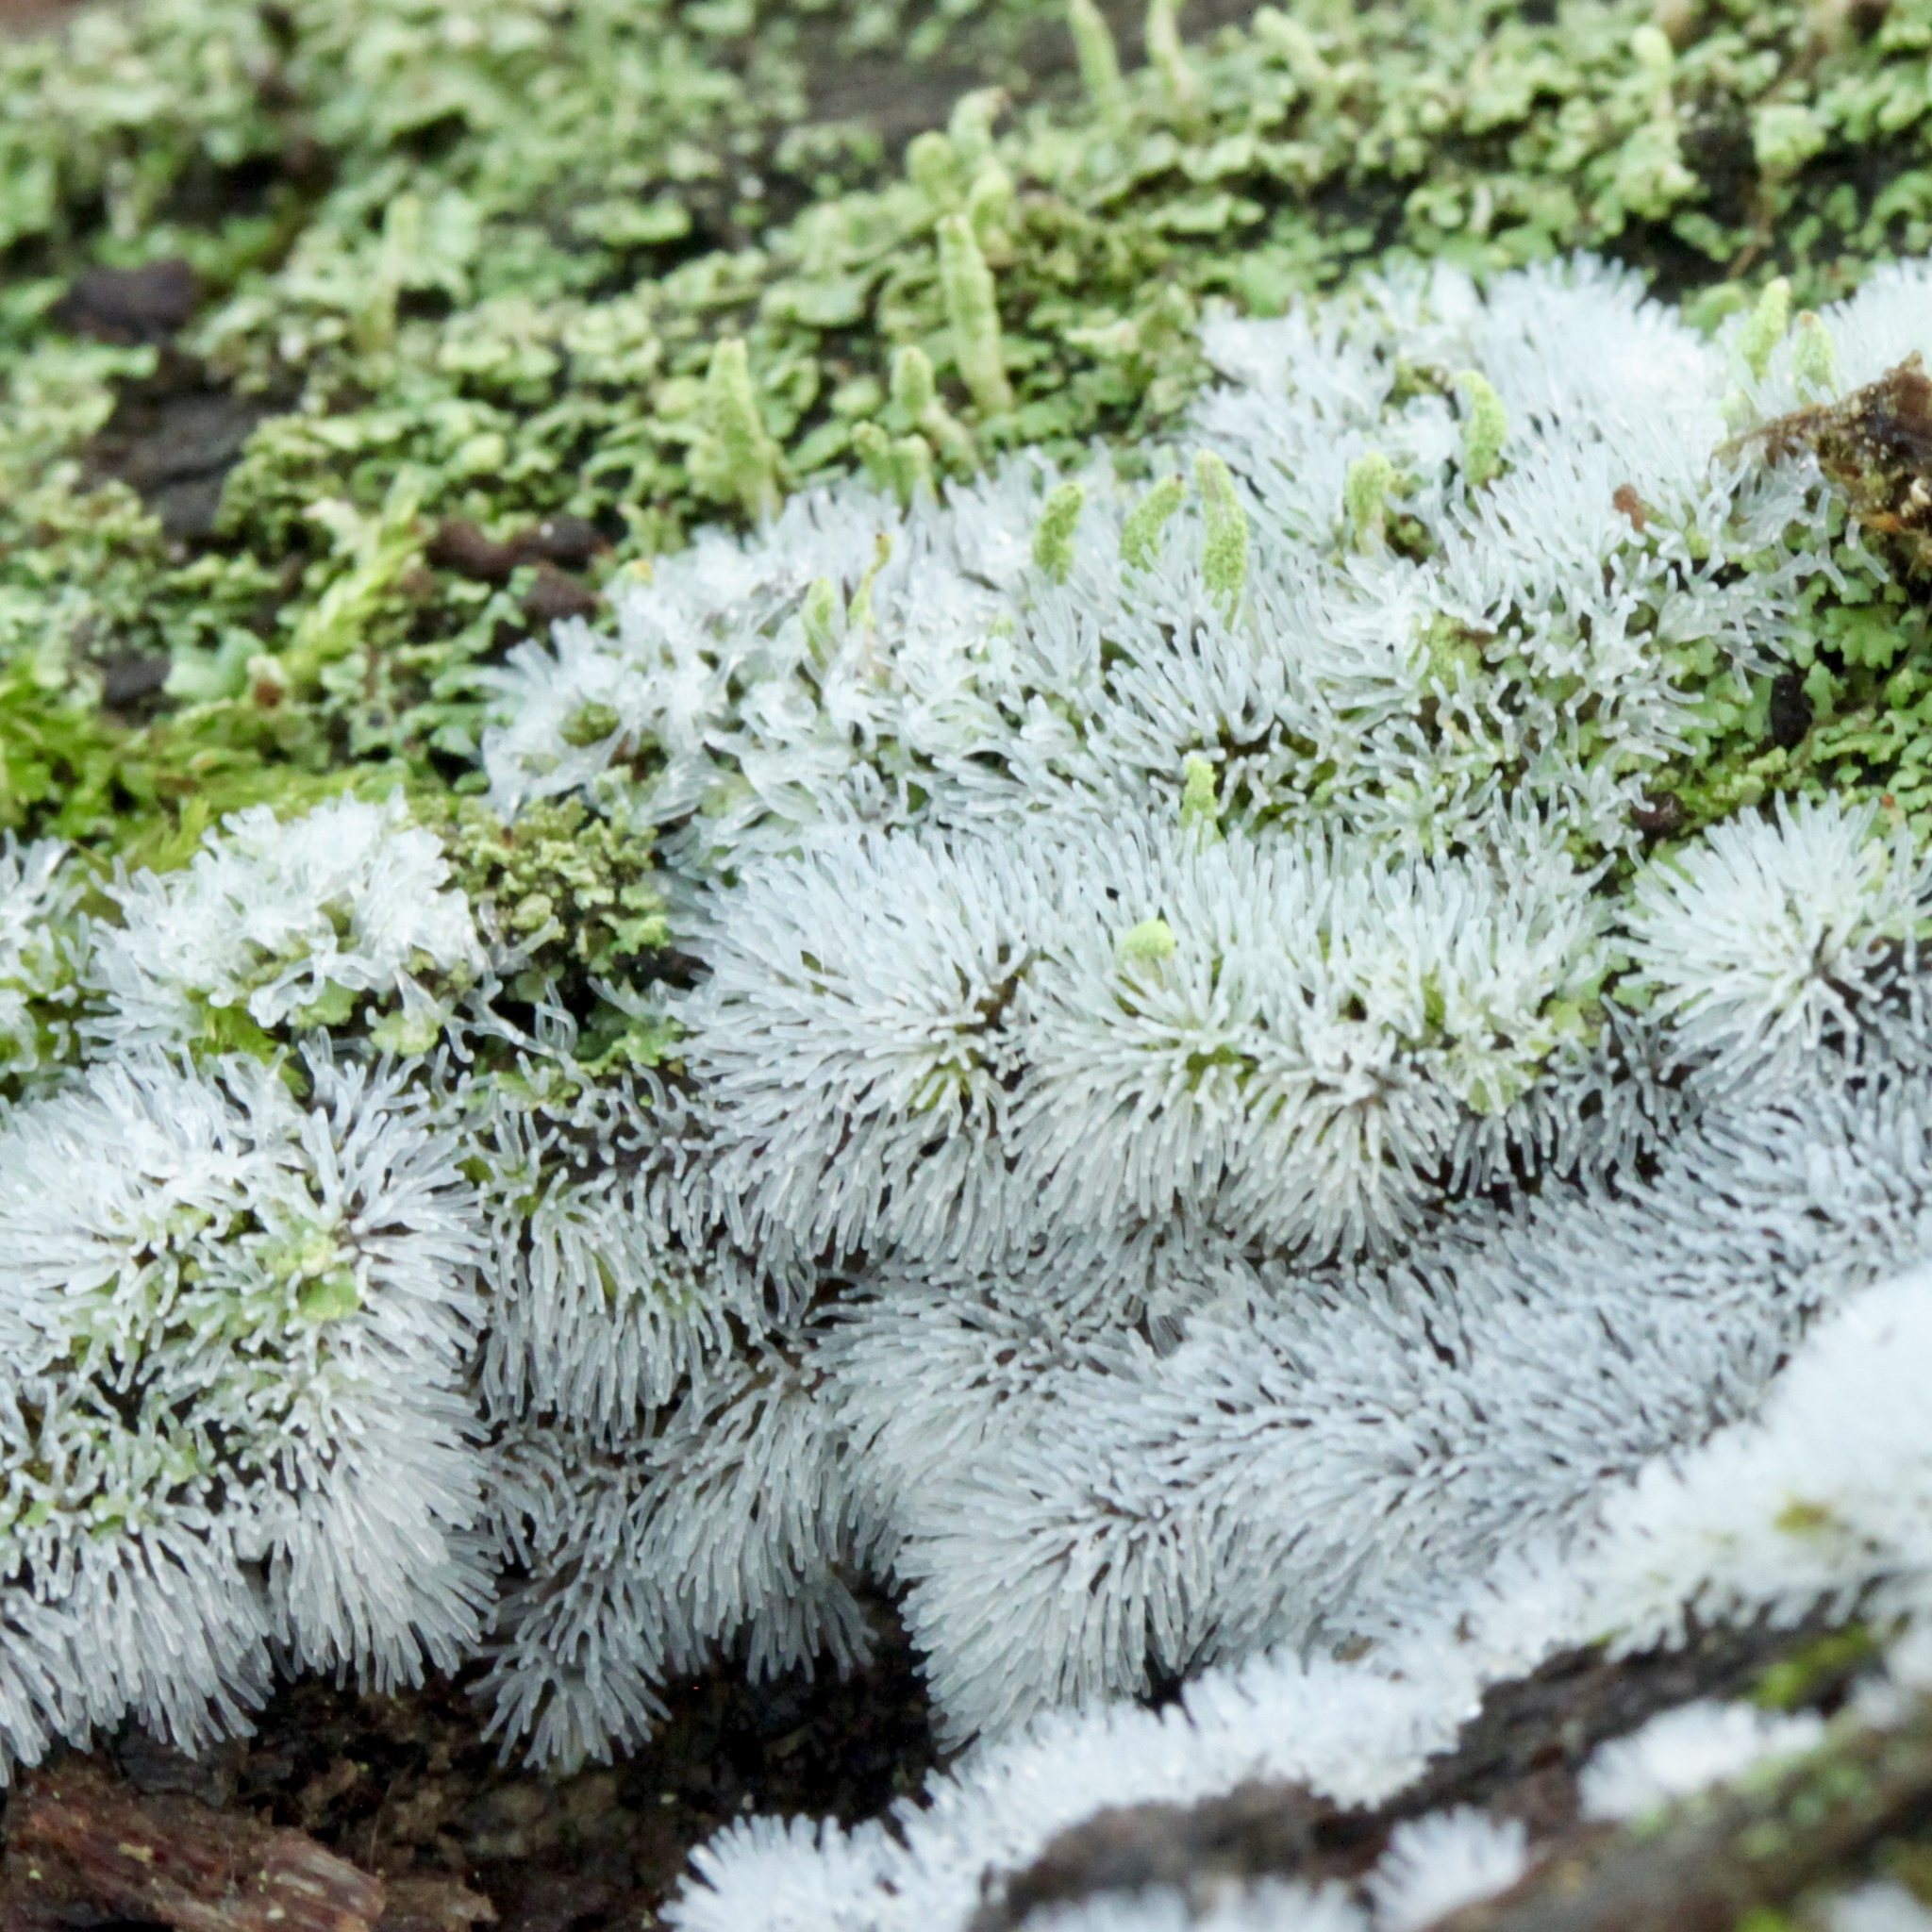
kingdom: Protozoa
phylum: Mycetozoa
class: Protosteliomycetes
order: Ceratiomyxales
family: Ceratiomyxaceae
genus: Ceratiomyxa
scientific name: Ceratiomyxa fruticulosa
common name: Honeycomb coral slime mold
